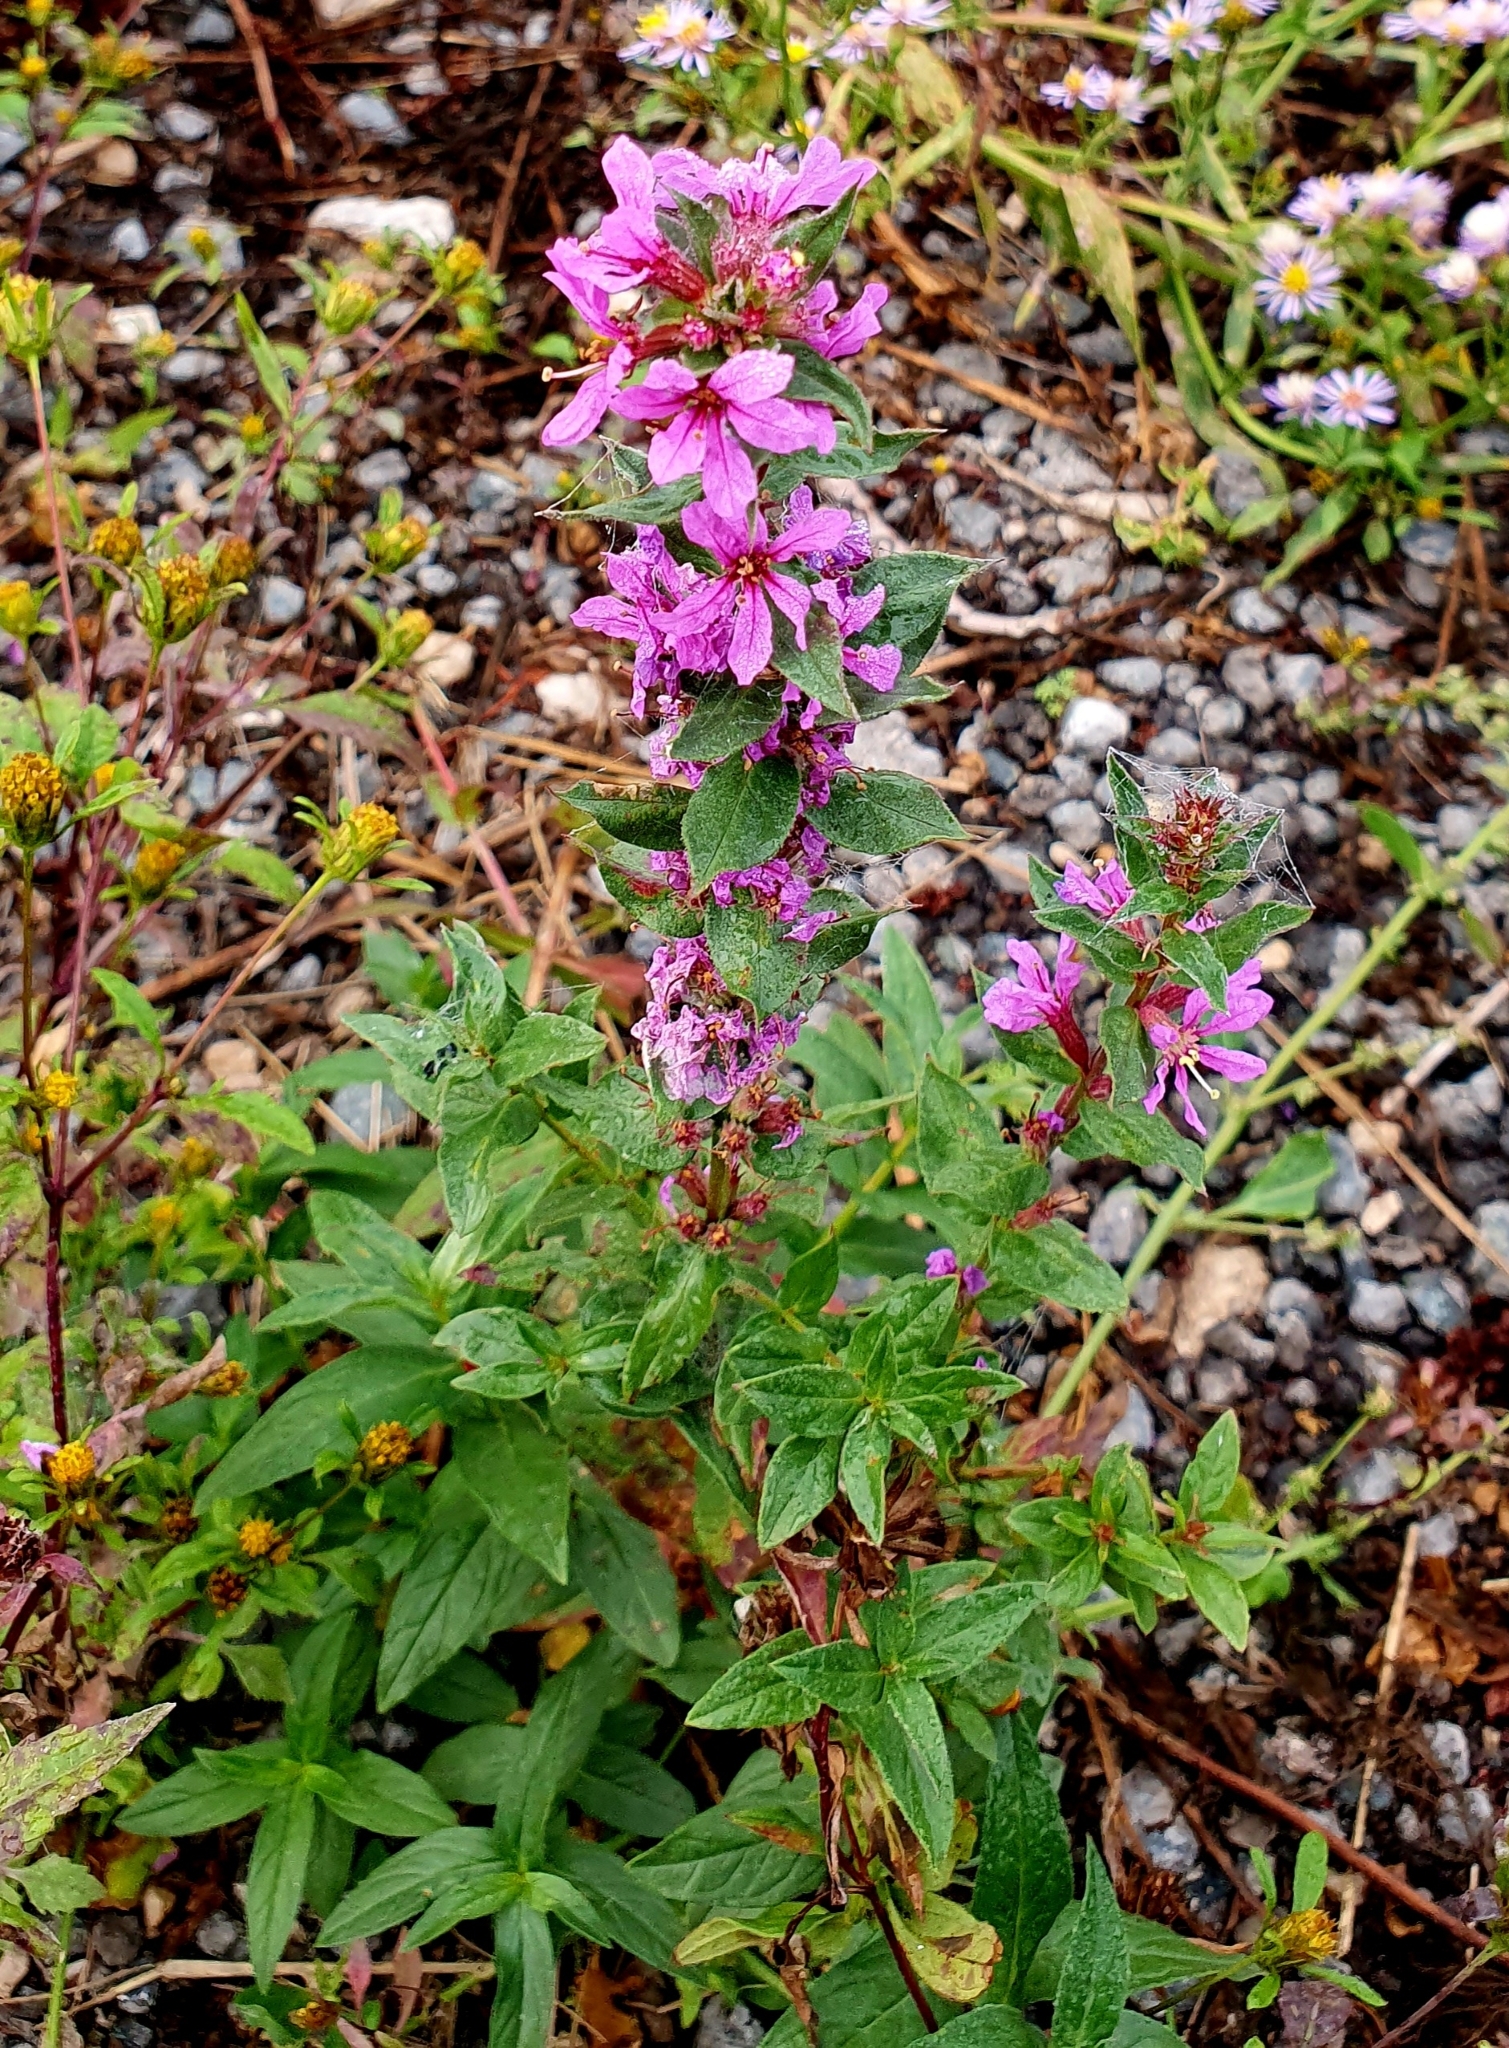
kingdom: Plantae
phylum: Tracheophyta
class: Magnoliopsida
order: Myrtales
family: Lythraceae
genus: Lythrum
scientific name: Lythrum salicaria
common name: Purple loosestrife
